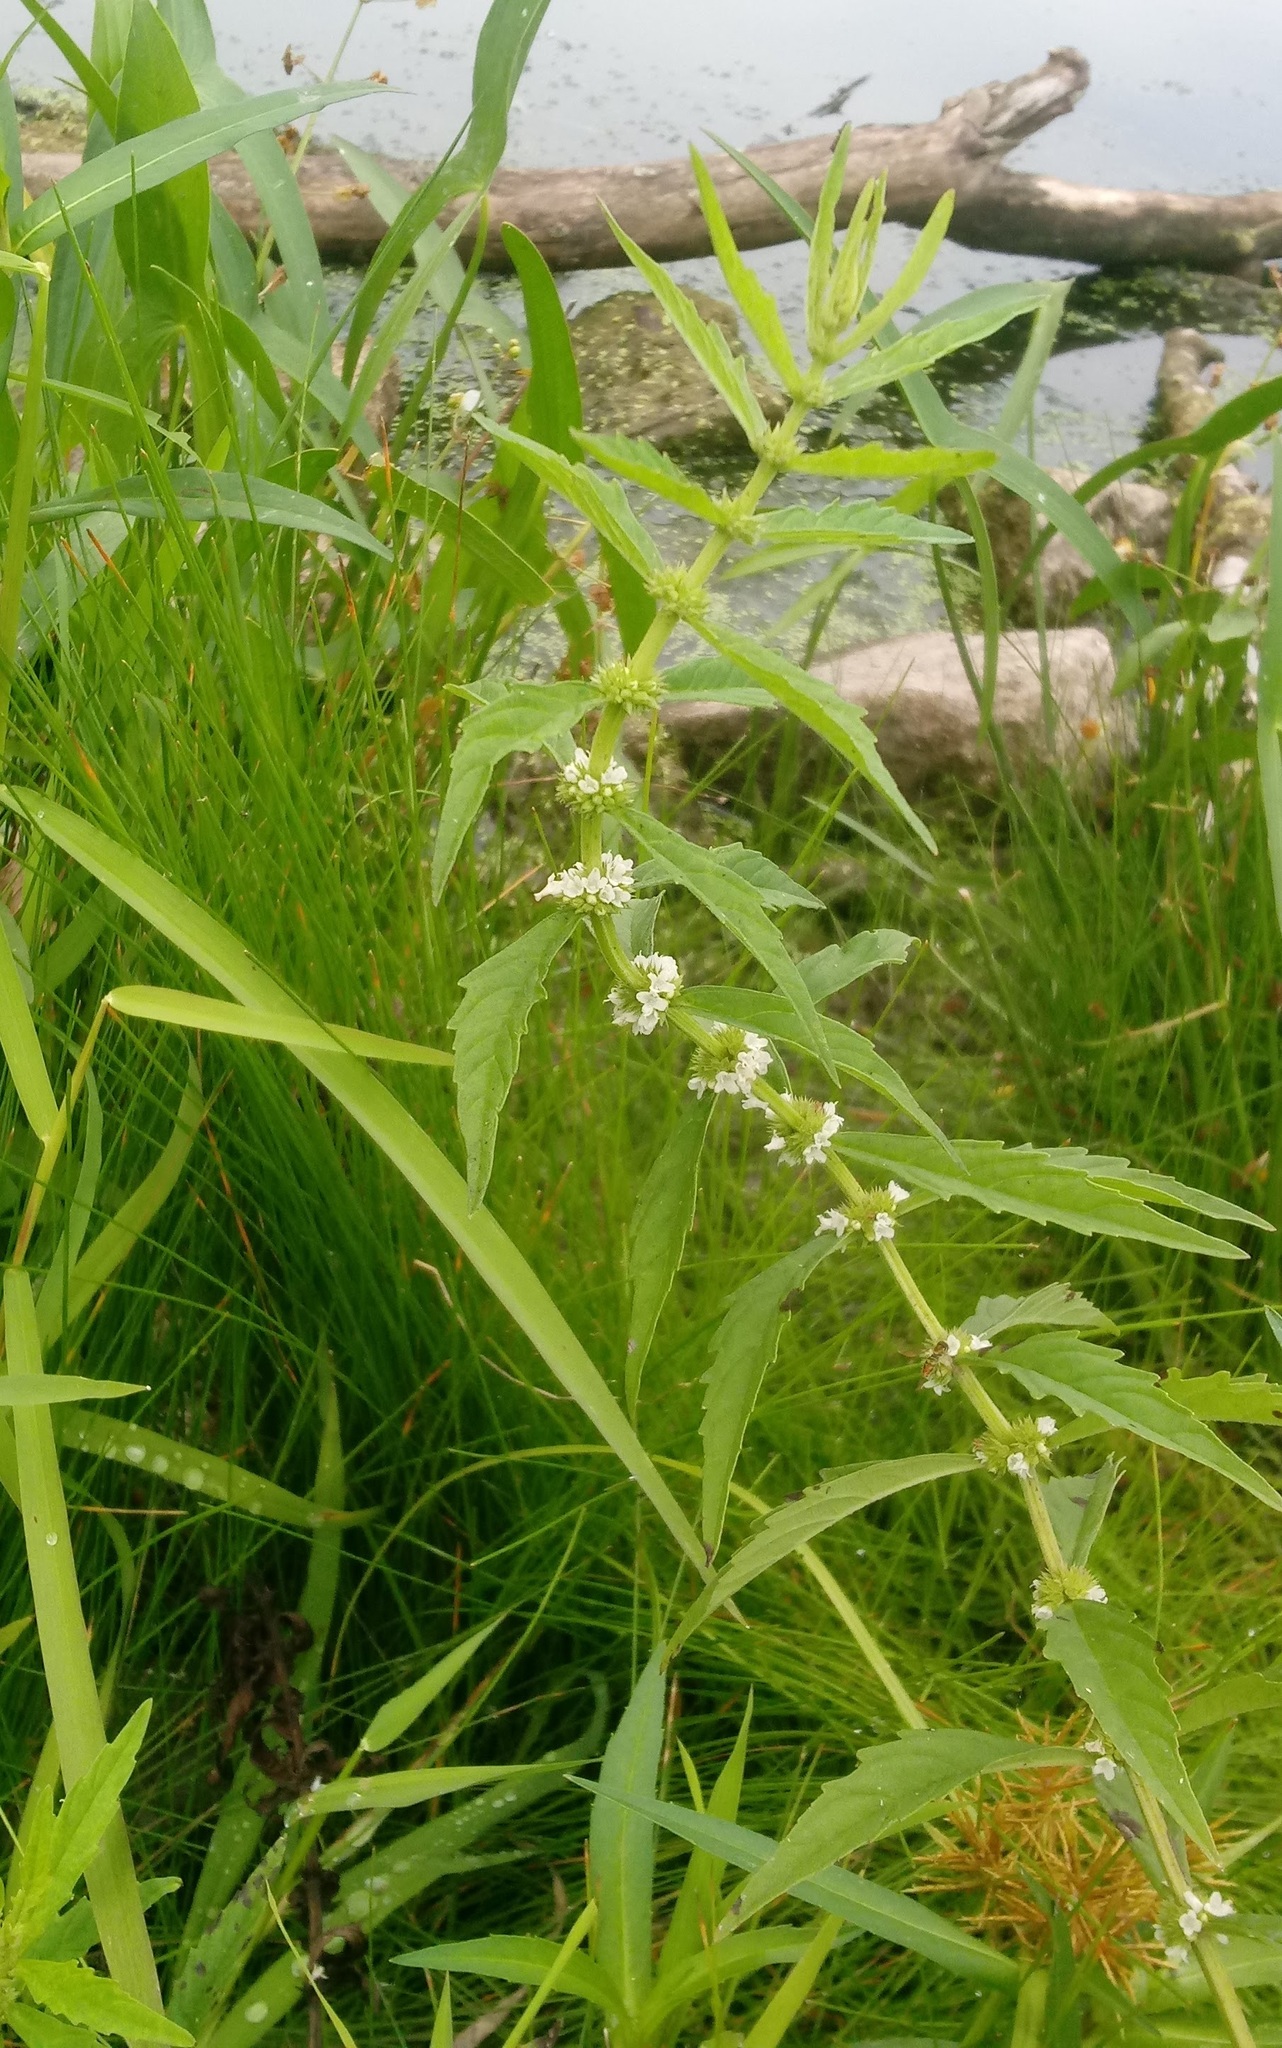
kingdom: Plantae
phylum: Tracheophyta
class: Magnoliopsida
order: Lamiales
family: Lamiaceae
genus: Lycopus
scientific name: Lycopus americanus
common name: American bugleweed
